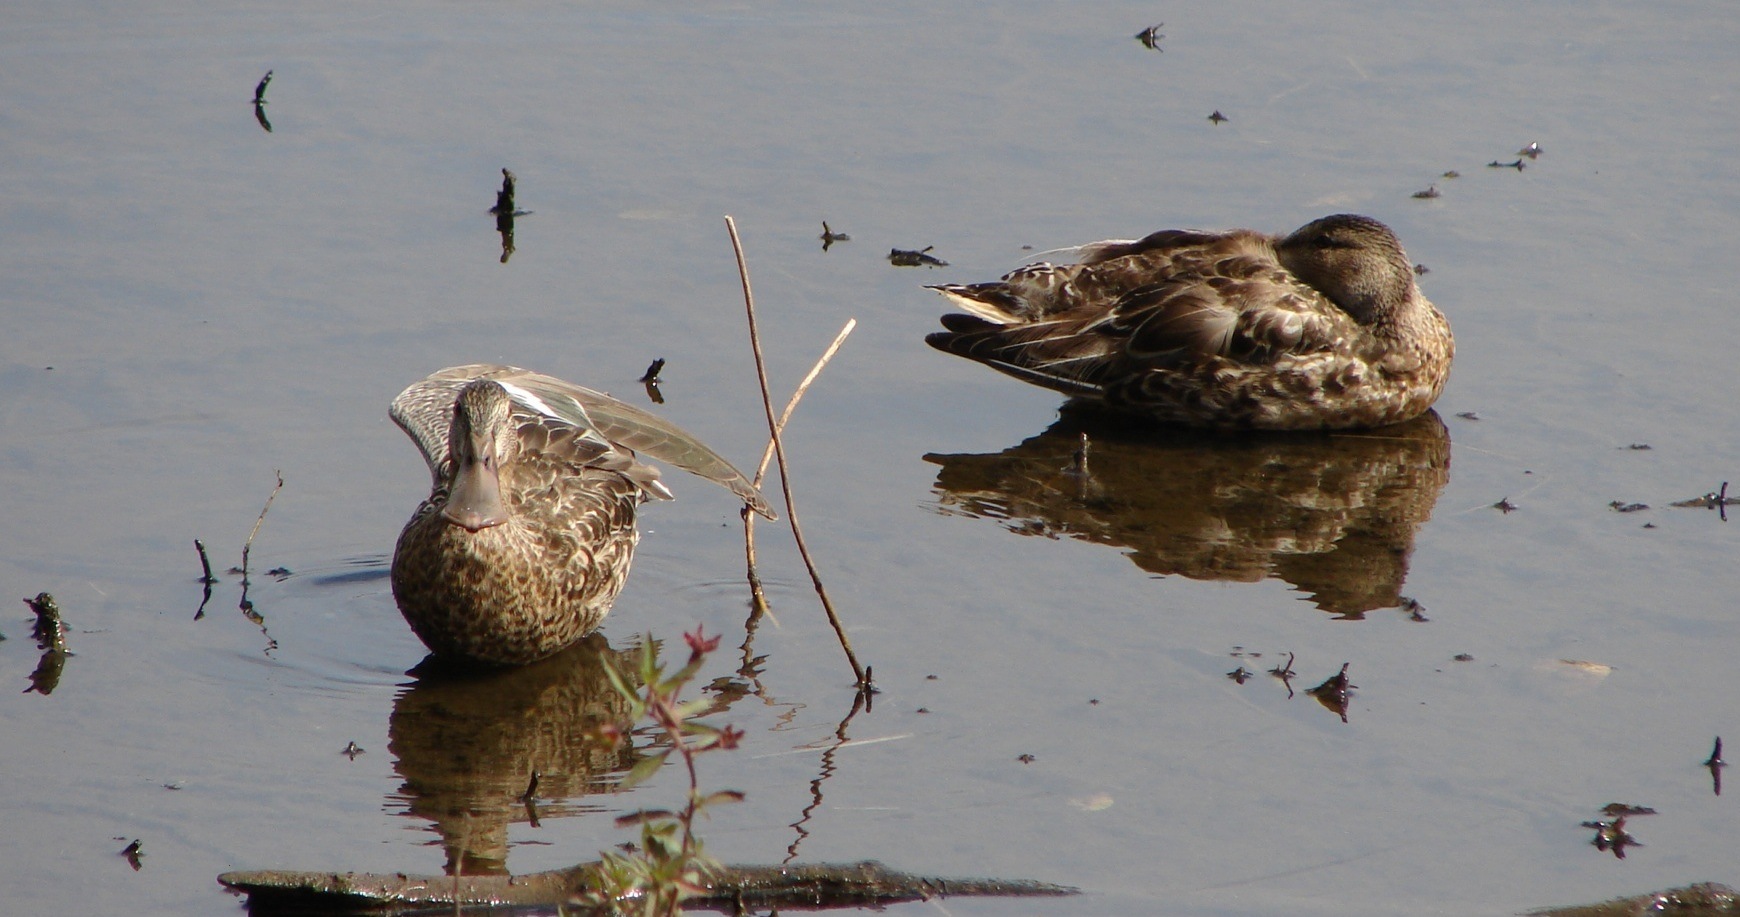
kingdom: Animalia
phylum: Chordata
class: Aves
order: Anseriformes
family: Anatidae
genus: Spatula
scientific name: Spatula clypeata
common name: Northern shoveler
